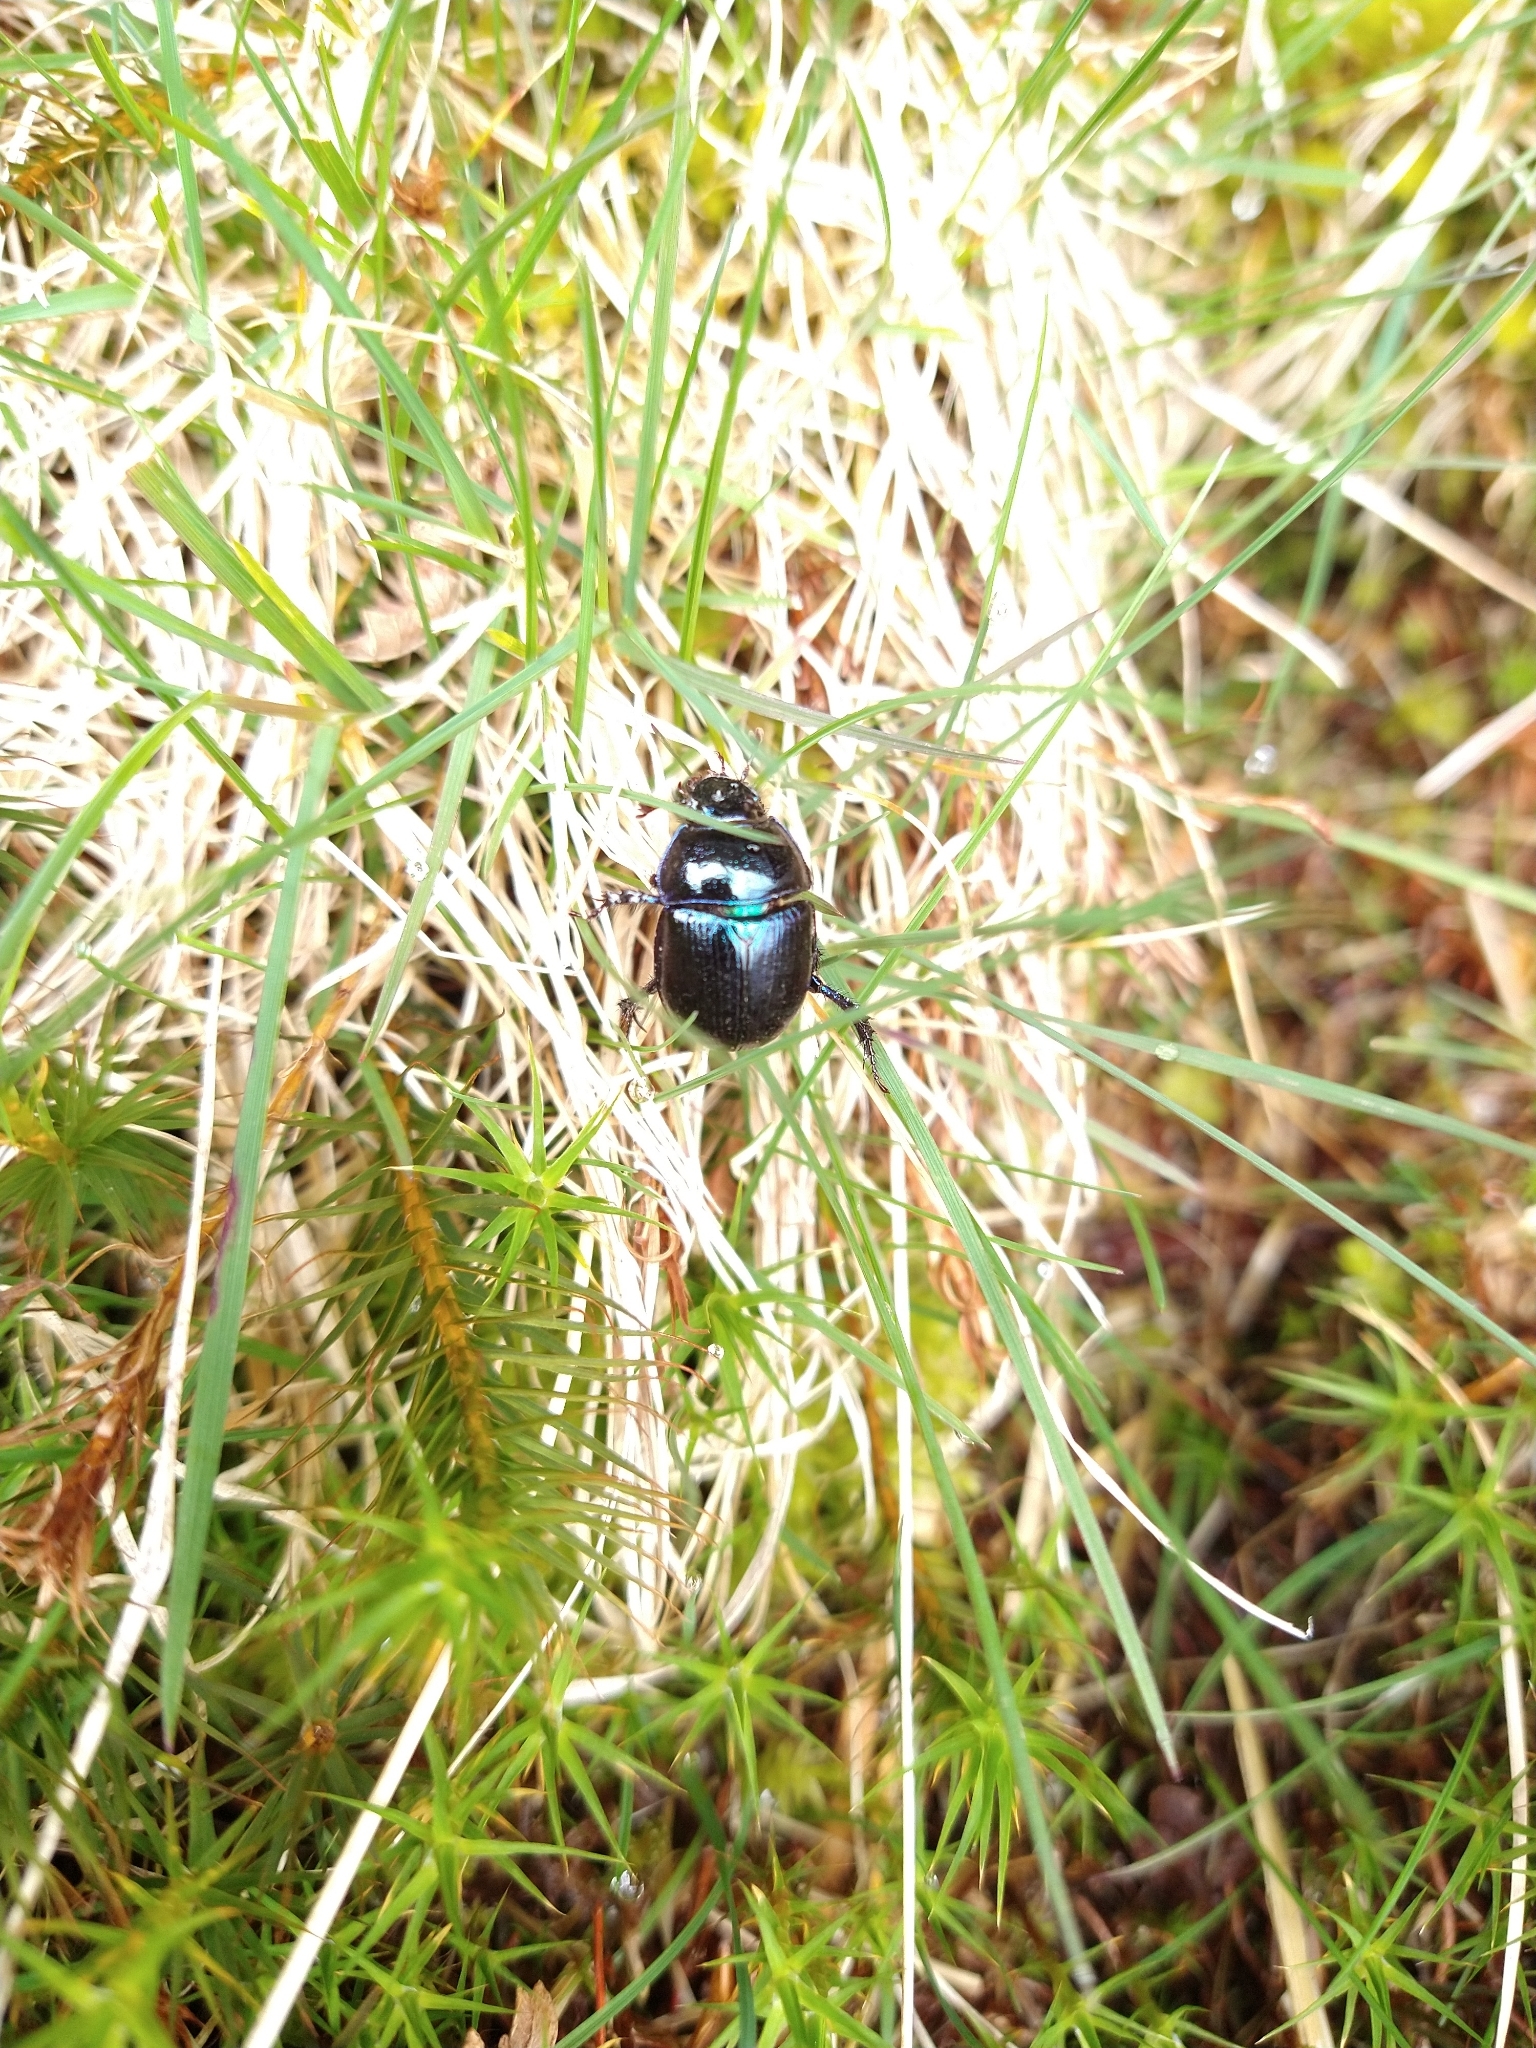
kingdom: Animalia
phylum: Arthropoda
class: Insecta
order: Coleoptera
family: Geotrupidae
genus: Anoplotrupes
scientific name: Anoplotrupes stercorosus
